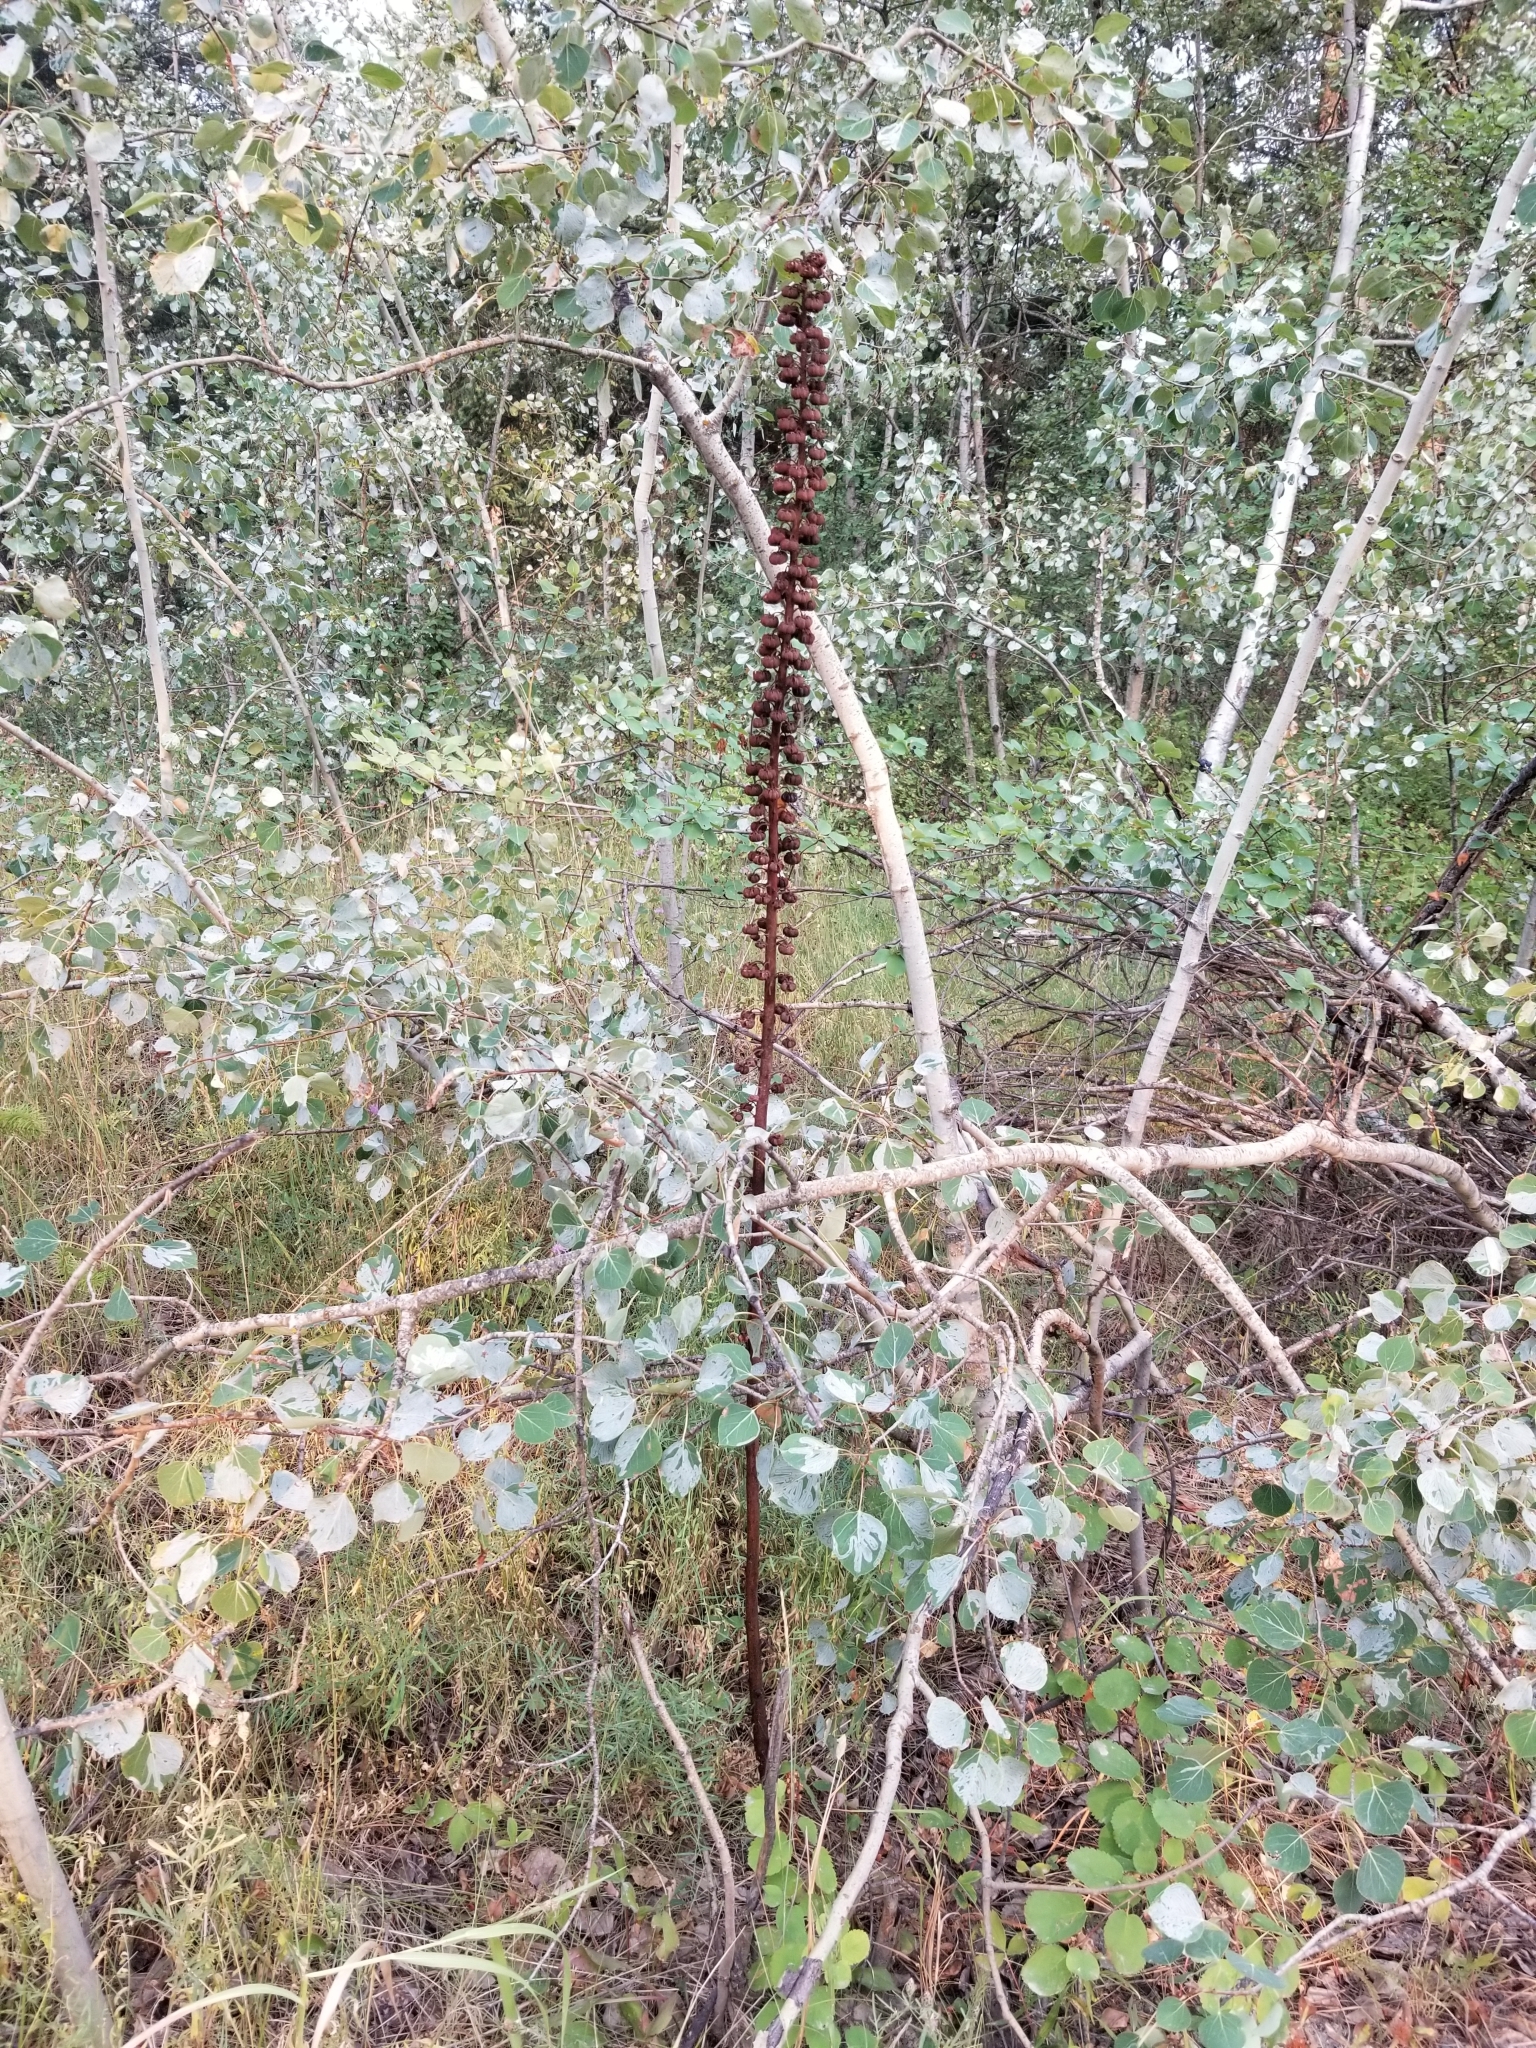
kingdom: Plantae
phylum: Tracheophyta
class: Magnoliopsida
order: Ericales
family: Ericaceae
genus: Pterospora
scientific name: Pterospora andromedea
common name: Giant bird's-nest
